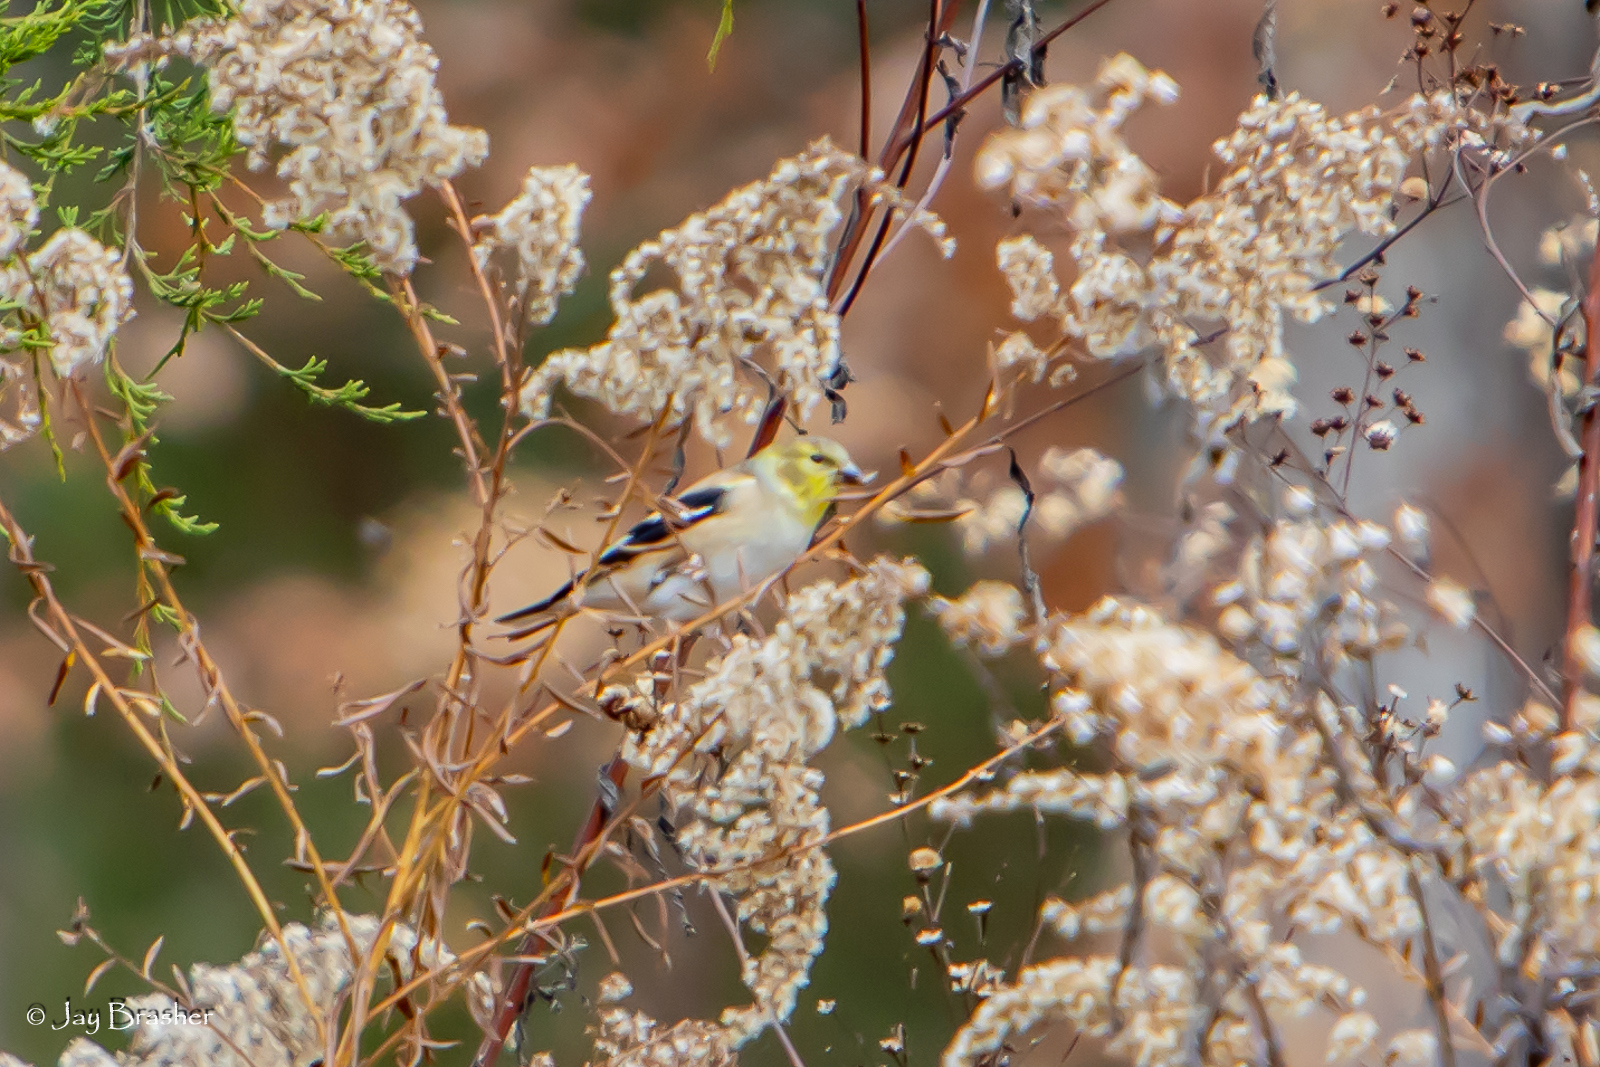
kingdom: Animalia
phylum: Chordata
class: Aves
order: Passeriformes
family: Fringillidae
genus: Spinus
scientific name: Spinus tristis
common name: American goldfinch
